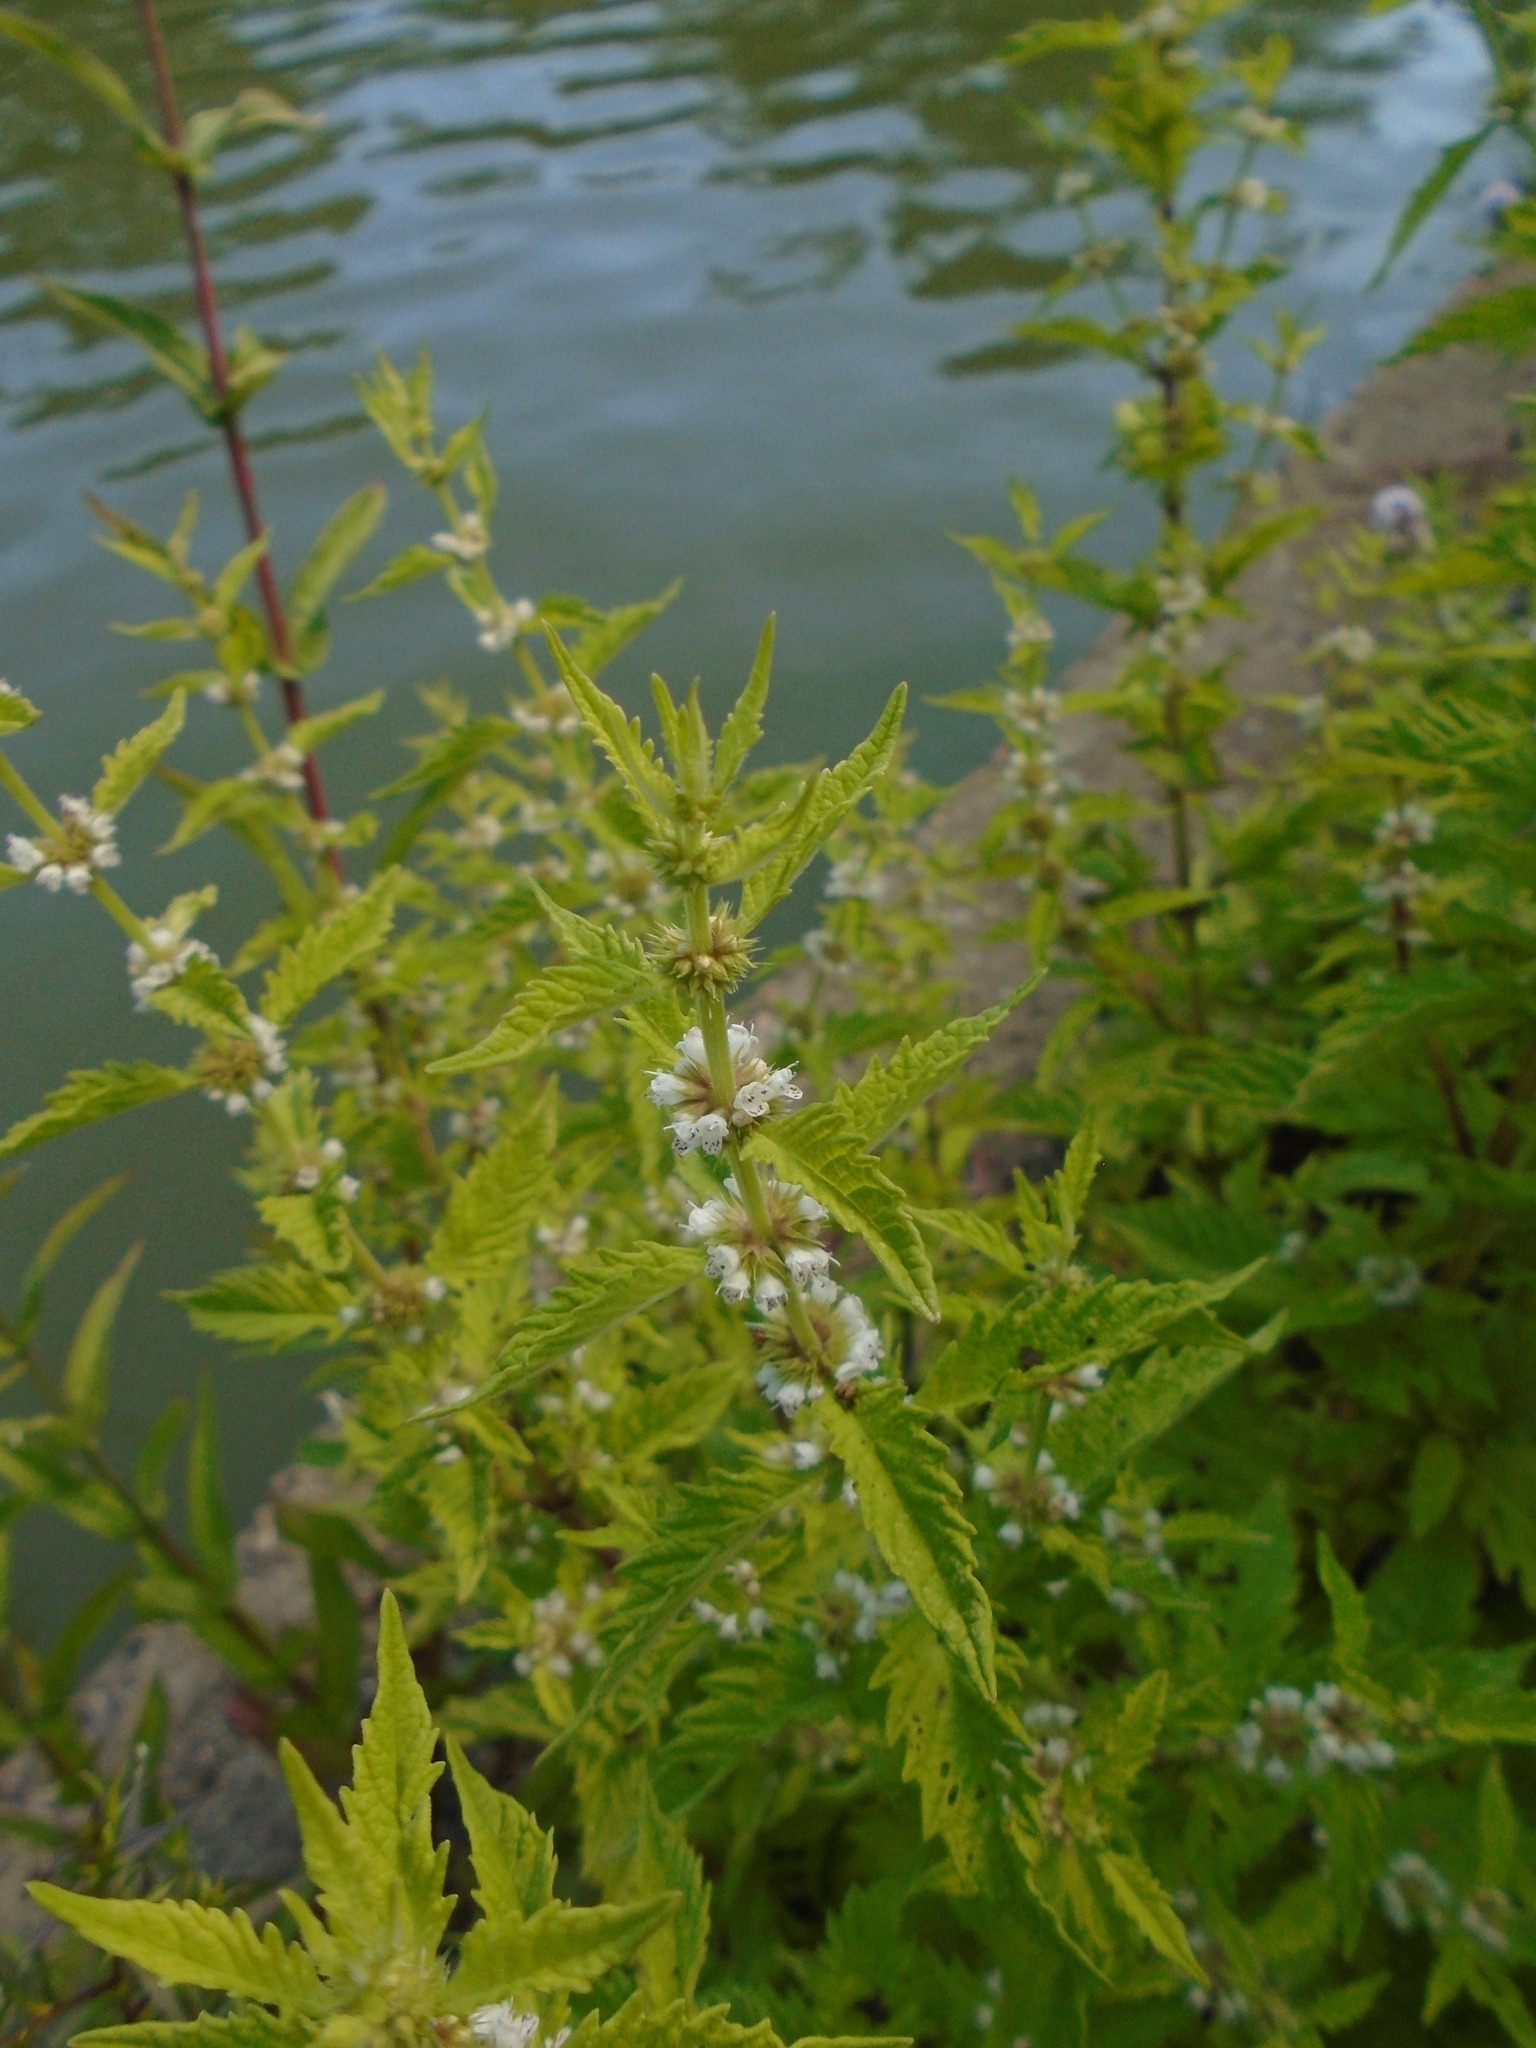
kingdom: Plantae
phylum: Tracheophyta
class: Magnoliopsida
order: Lamiales
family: Lamiaceae
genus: Lycopus
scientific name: Lycopus europaeus
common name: European bugleweed
